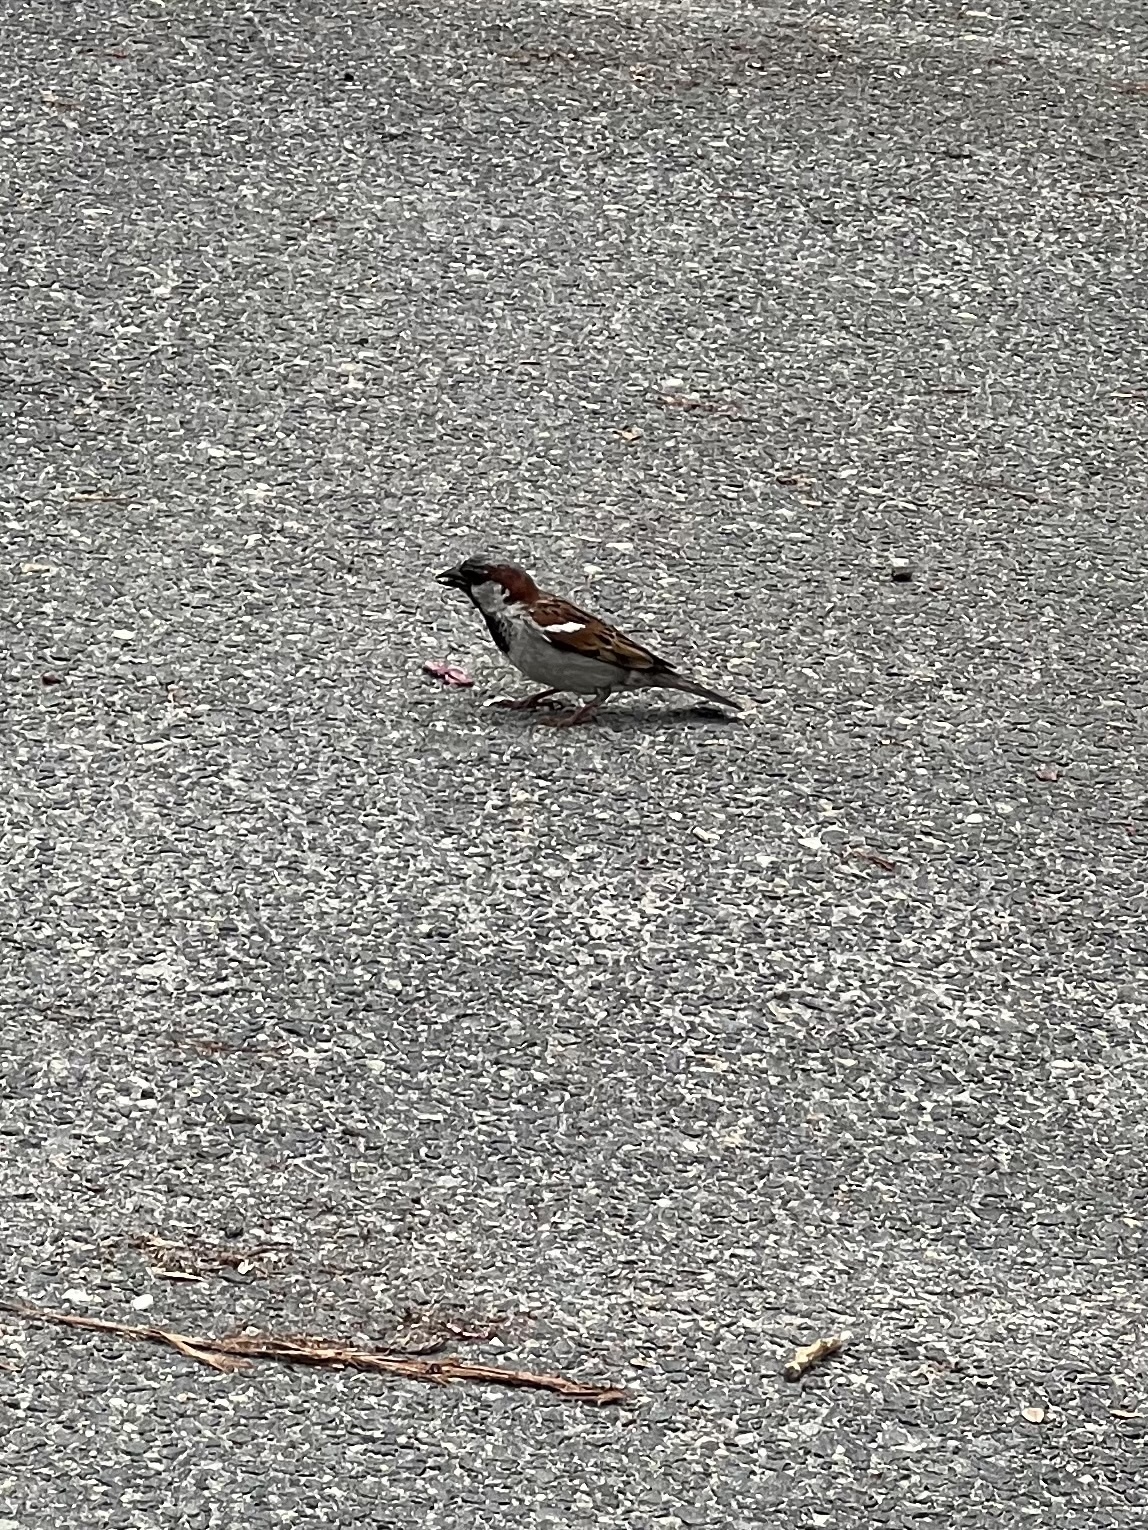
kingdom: Animalia
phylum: Chordata
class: Aves
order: Passeriformes
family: Passeridae
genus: Passer
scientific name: Passer domesticus
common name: House sparrow
